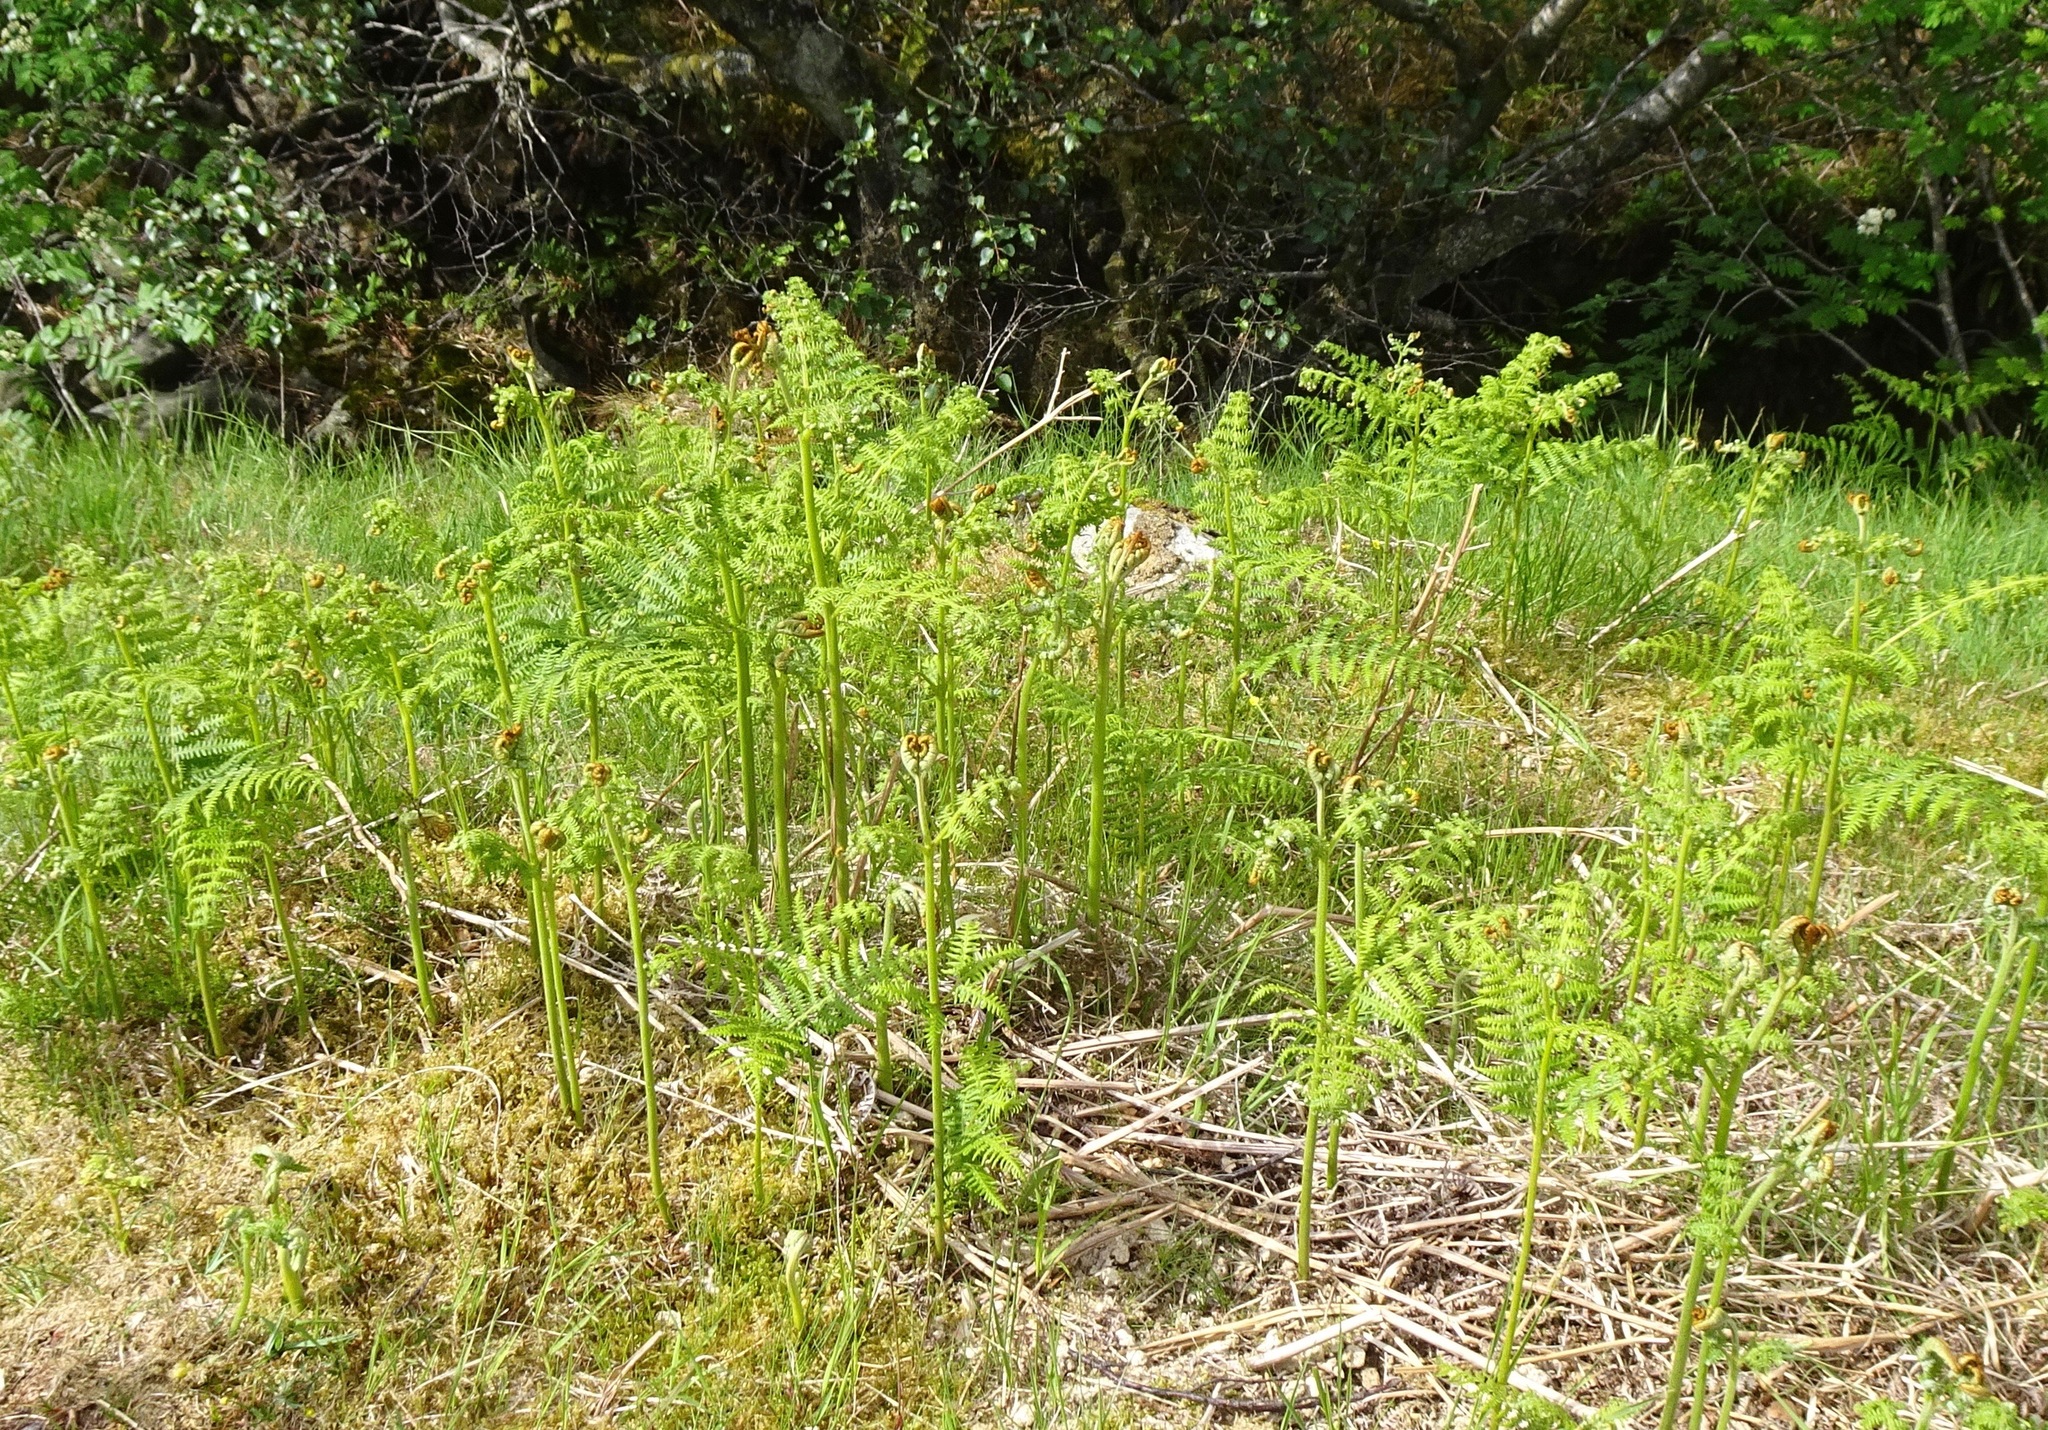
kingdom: Plantae
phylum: Tracheophyta
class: Polypodiopsida
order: Polypodiales
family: Dennstaedtiaceae
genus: Pteridium
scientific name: Pteridium aquilinum
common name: Bracken
